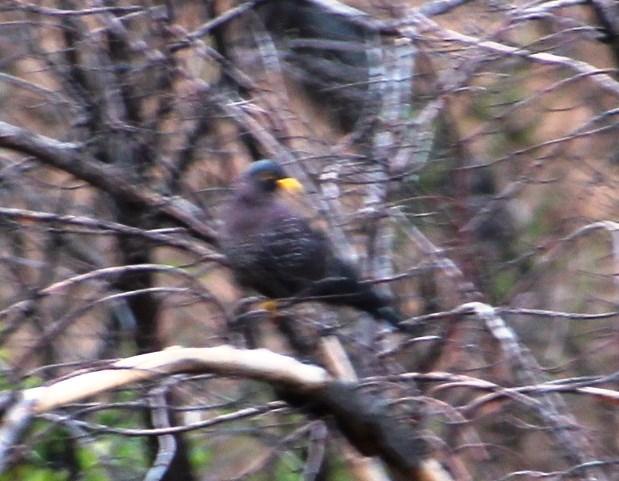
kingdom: Animalia
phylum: Chordata
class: Aves
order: Columbiformes
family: Columbidae
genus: Columba
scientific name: Columba arquatrix
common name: African olive pigeon
